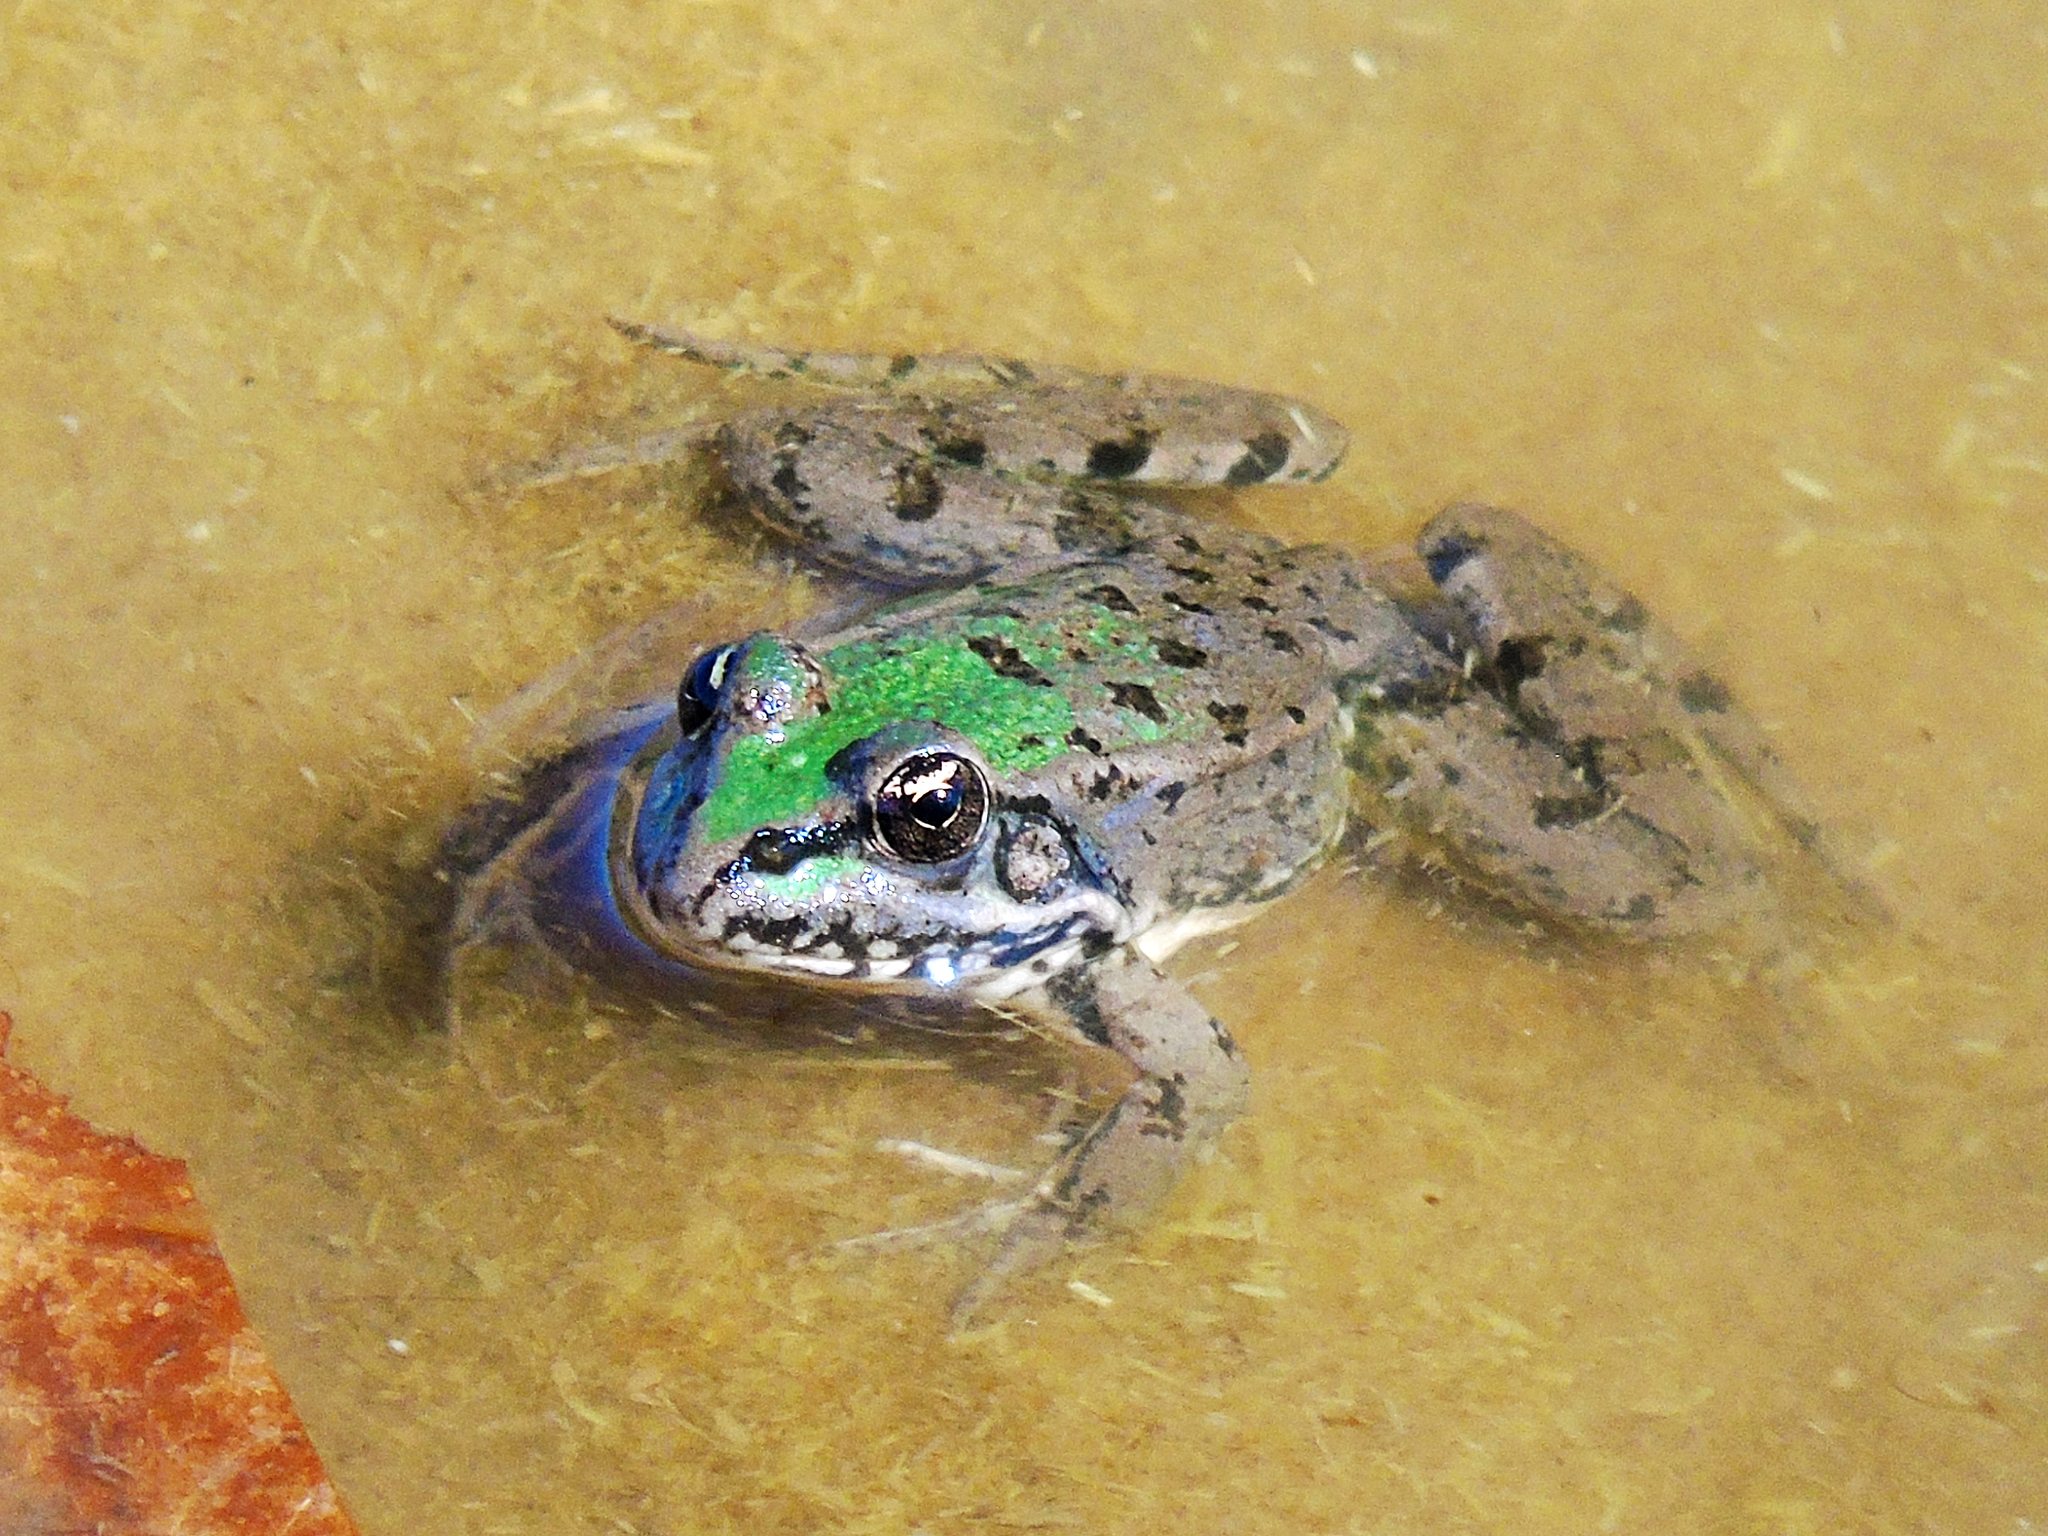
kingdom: Animalia
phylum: Chordata
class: Amphibia
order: Anura
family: Ranidae
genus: Pelophylax
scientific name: Pelophylax ridibundus
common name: Marsh frog
